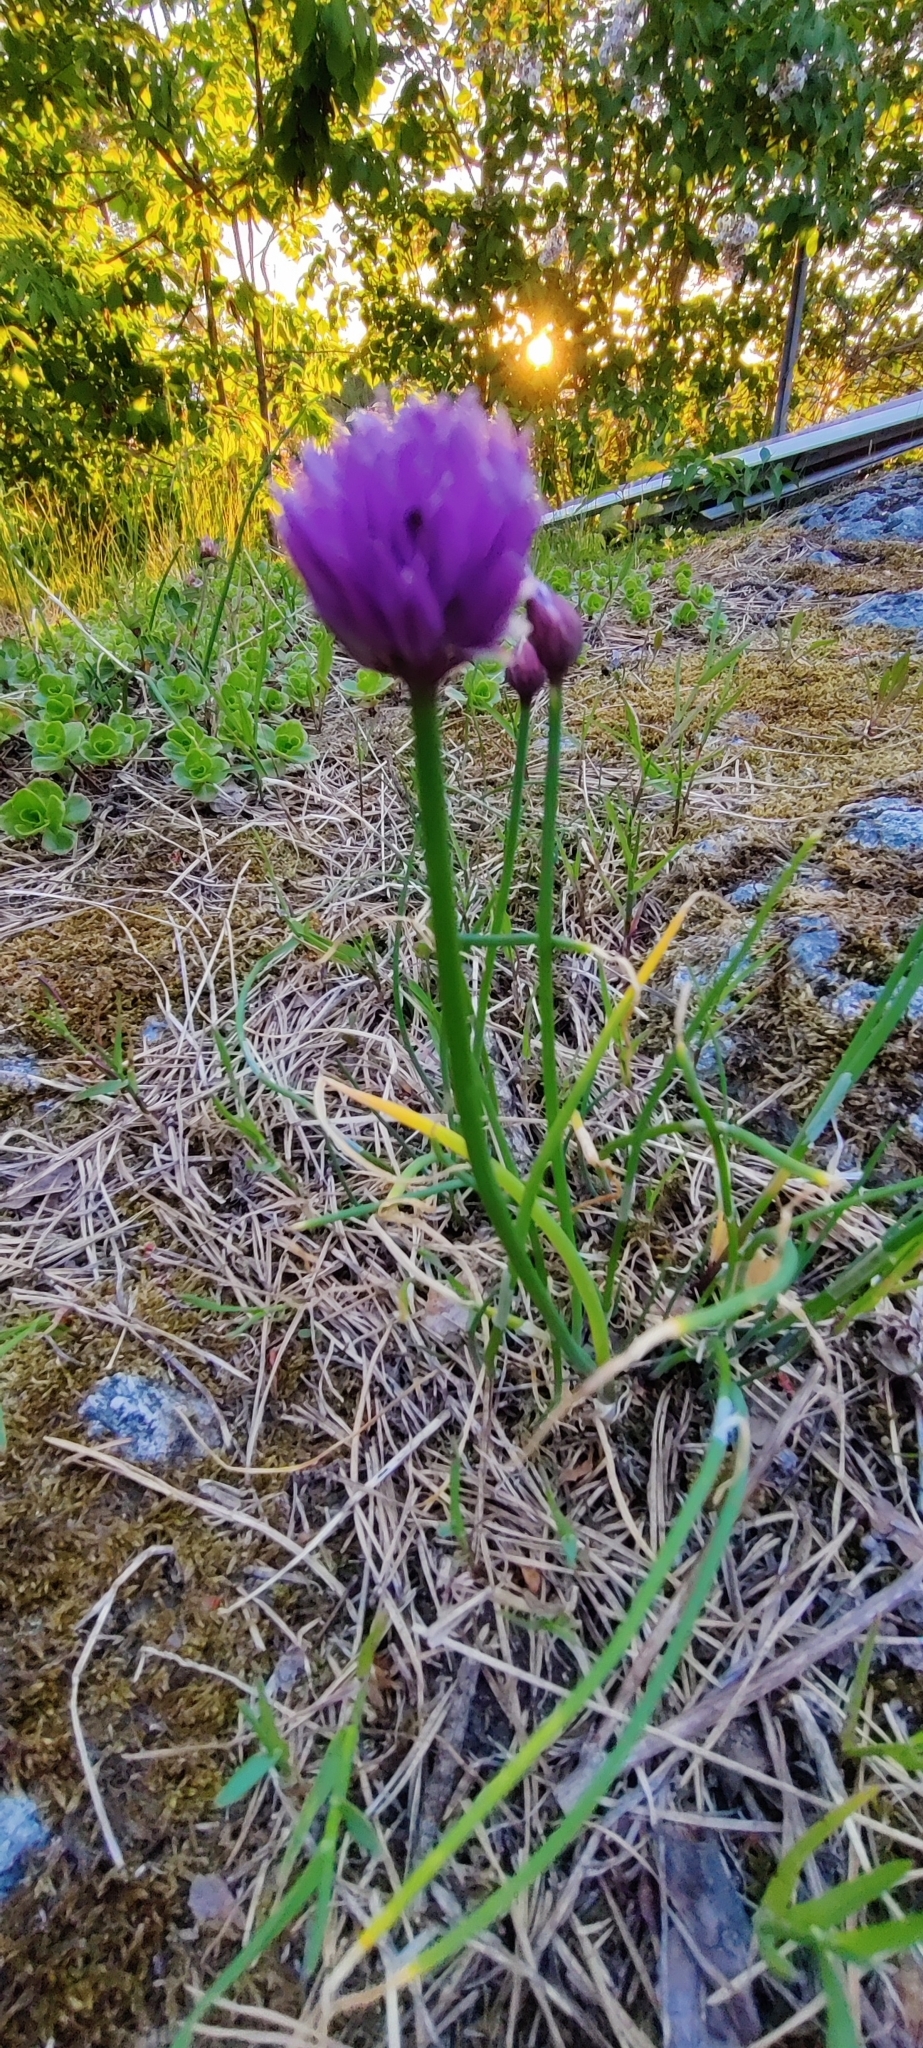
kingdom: Plantae
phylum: Tracheophyta
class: Liliopsida
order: Asparagales
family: Amaryllidaceae
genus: Allium
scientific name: Allium schoenoprasum
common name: Chives
